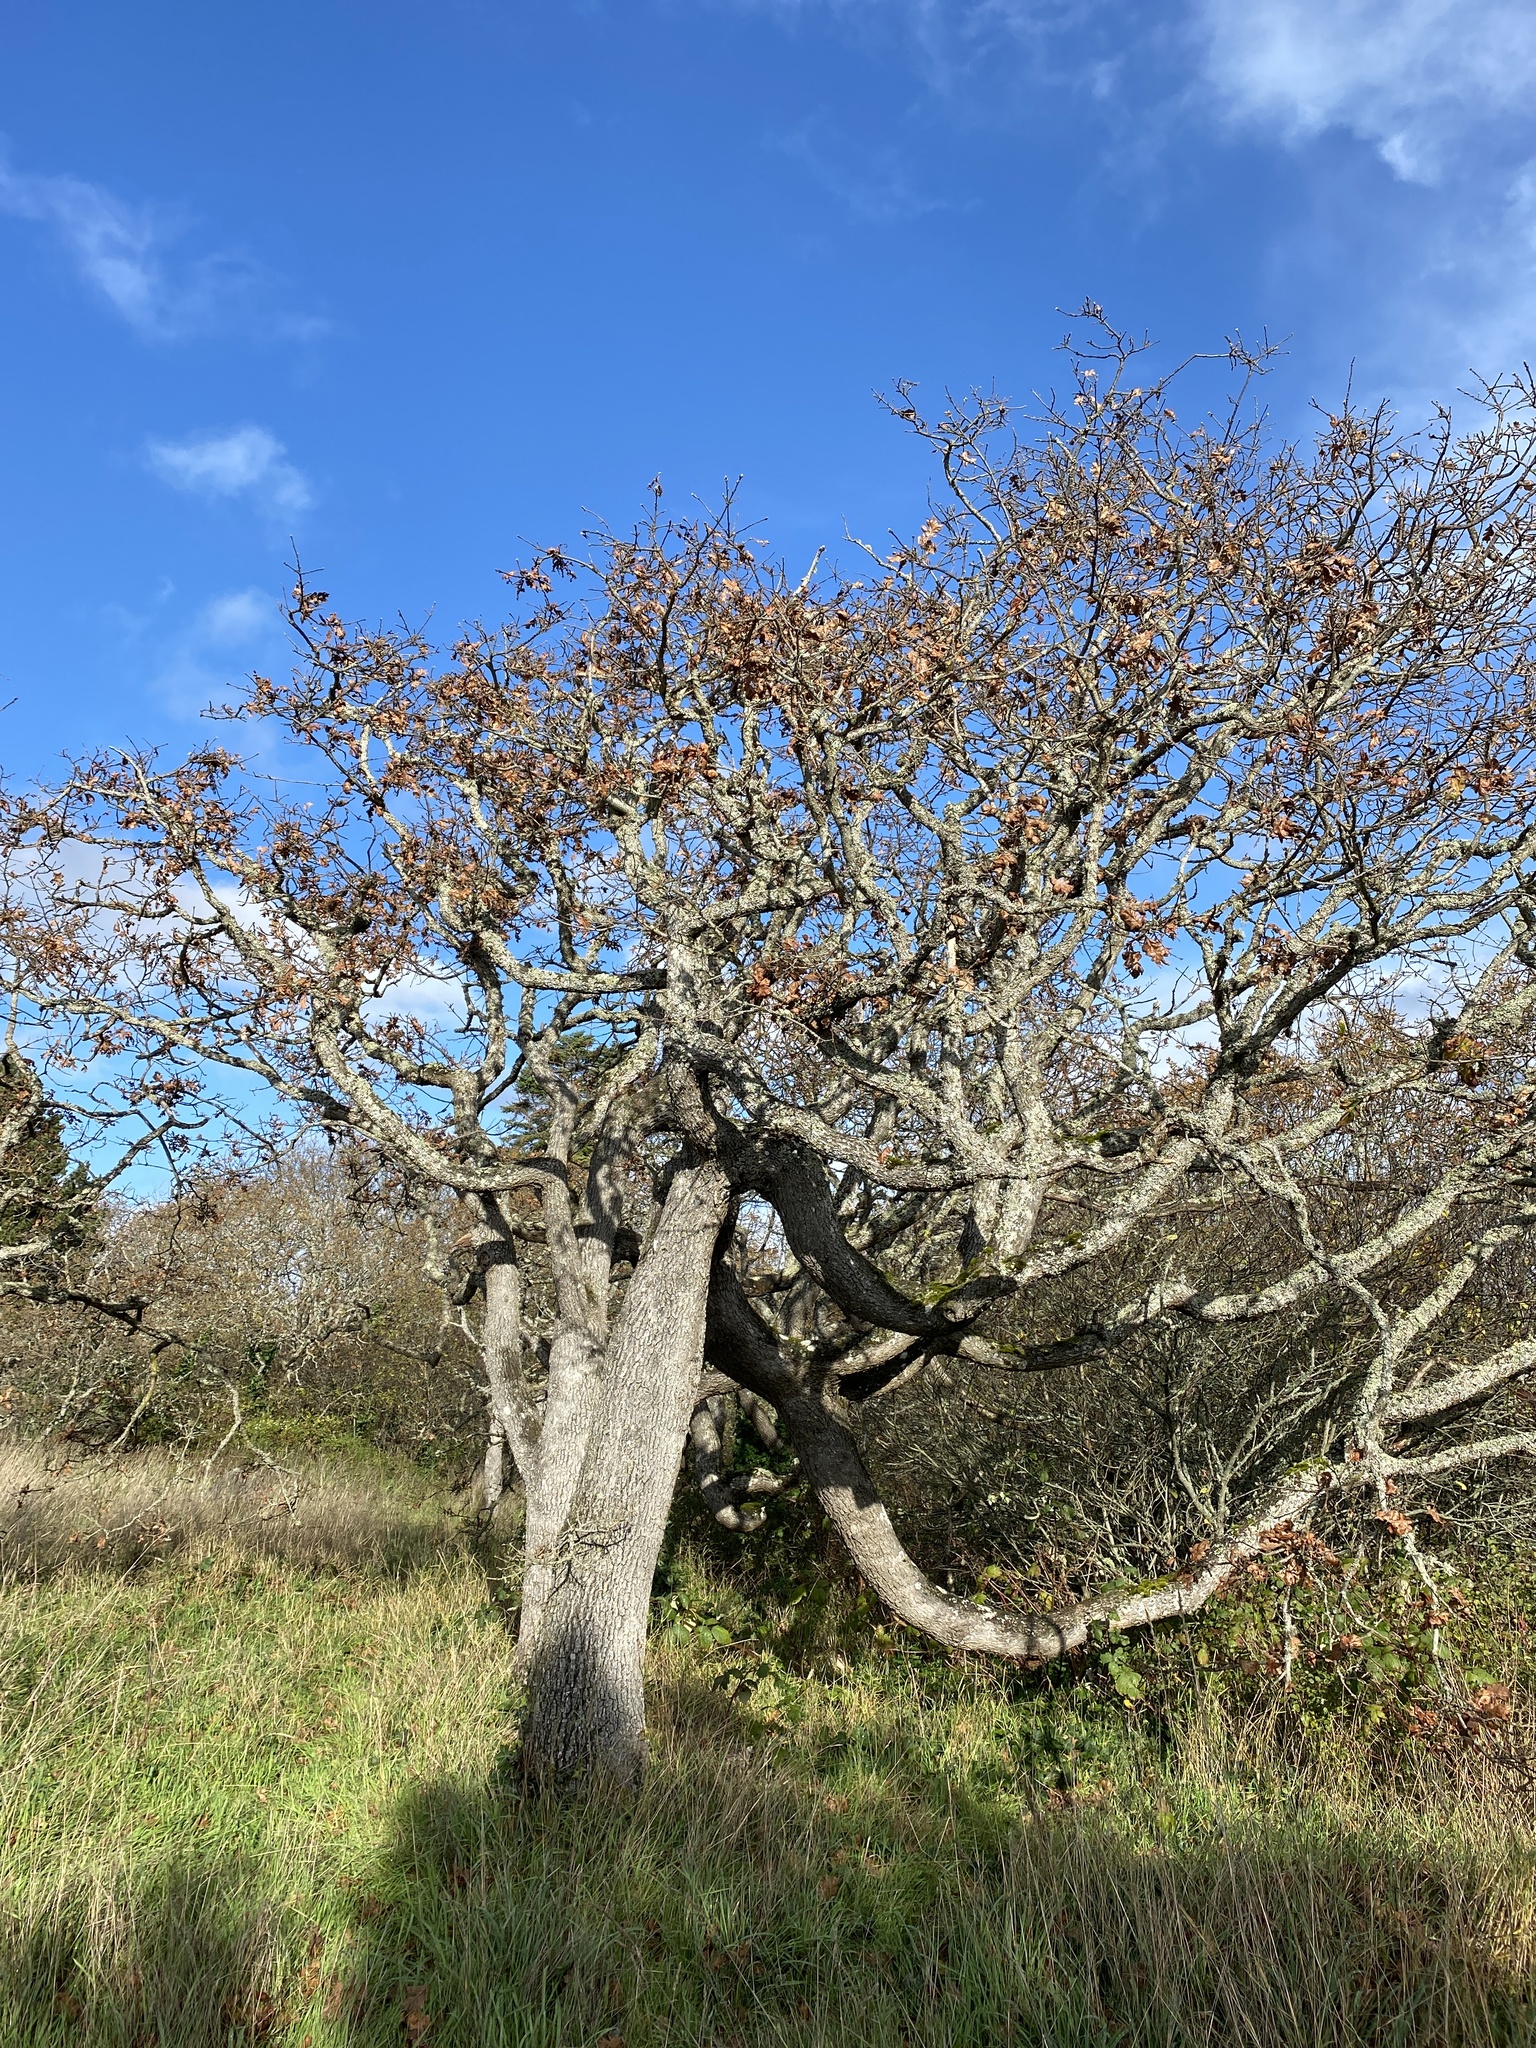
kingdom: Plantae
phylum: Tracheophyta
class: Magnoliopsida
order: Fagales
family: Fagaceae
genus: Quercus
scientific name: Quercus garryana
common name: Garry oak
